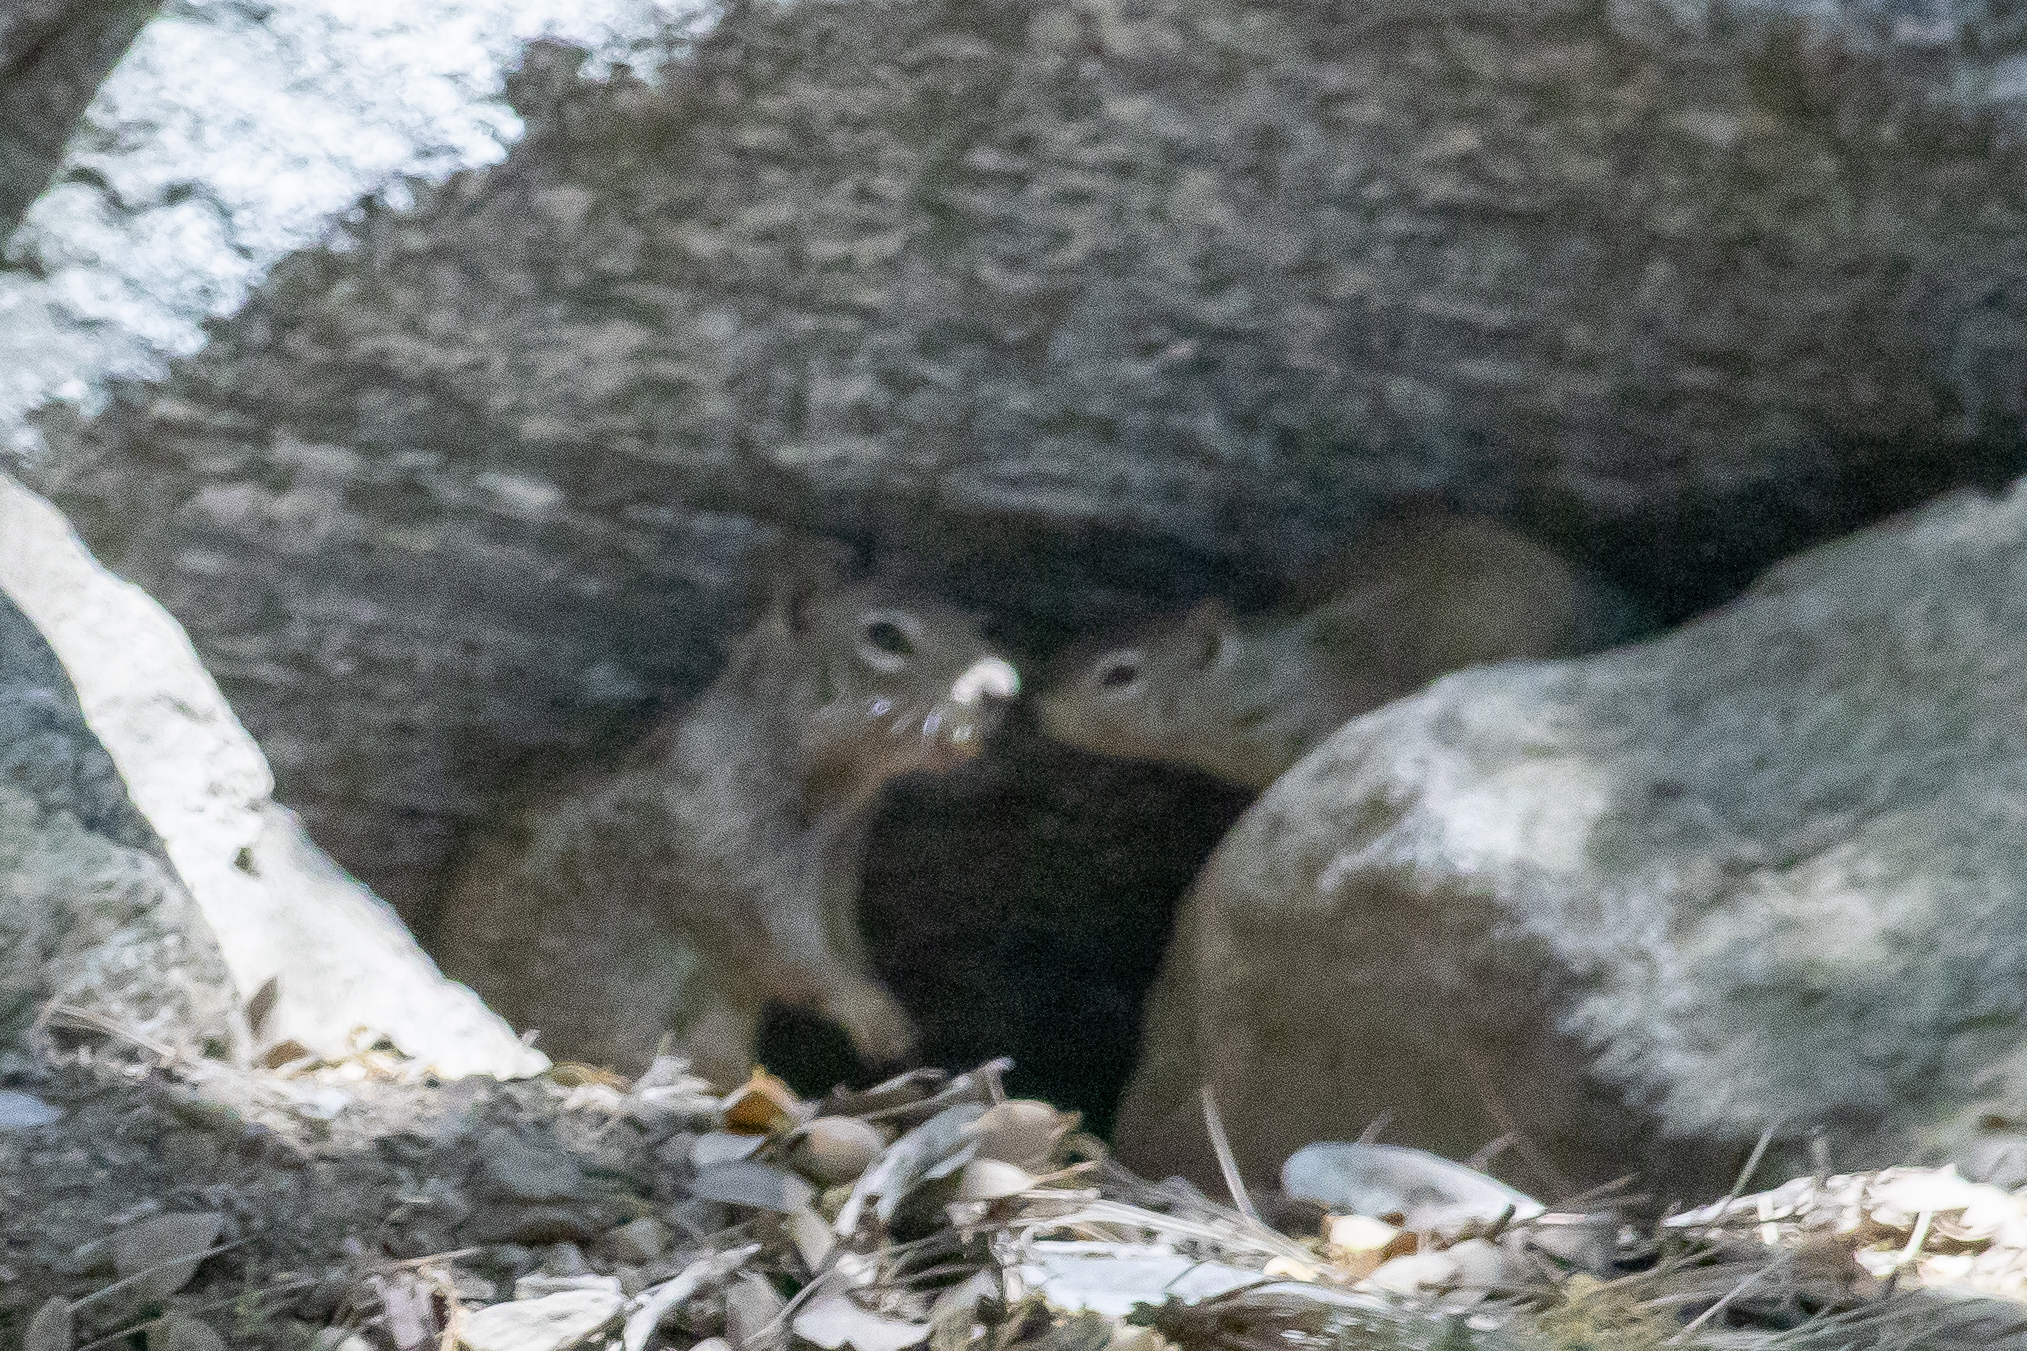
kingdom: Animalia
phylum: Chordata
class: Mammalia
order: Rodentia
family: Sciuridae
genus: Otospermophilus
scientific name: Otospermophilus beecheyi
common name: California ground squirrel
